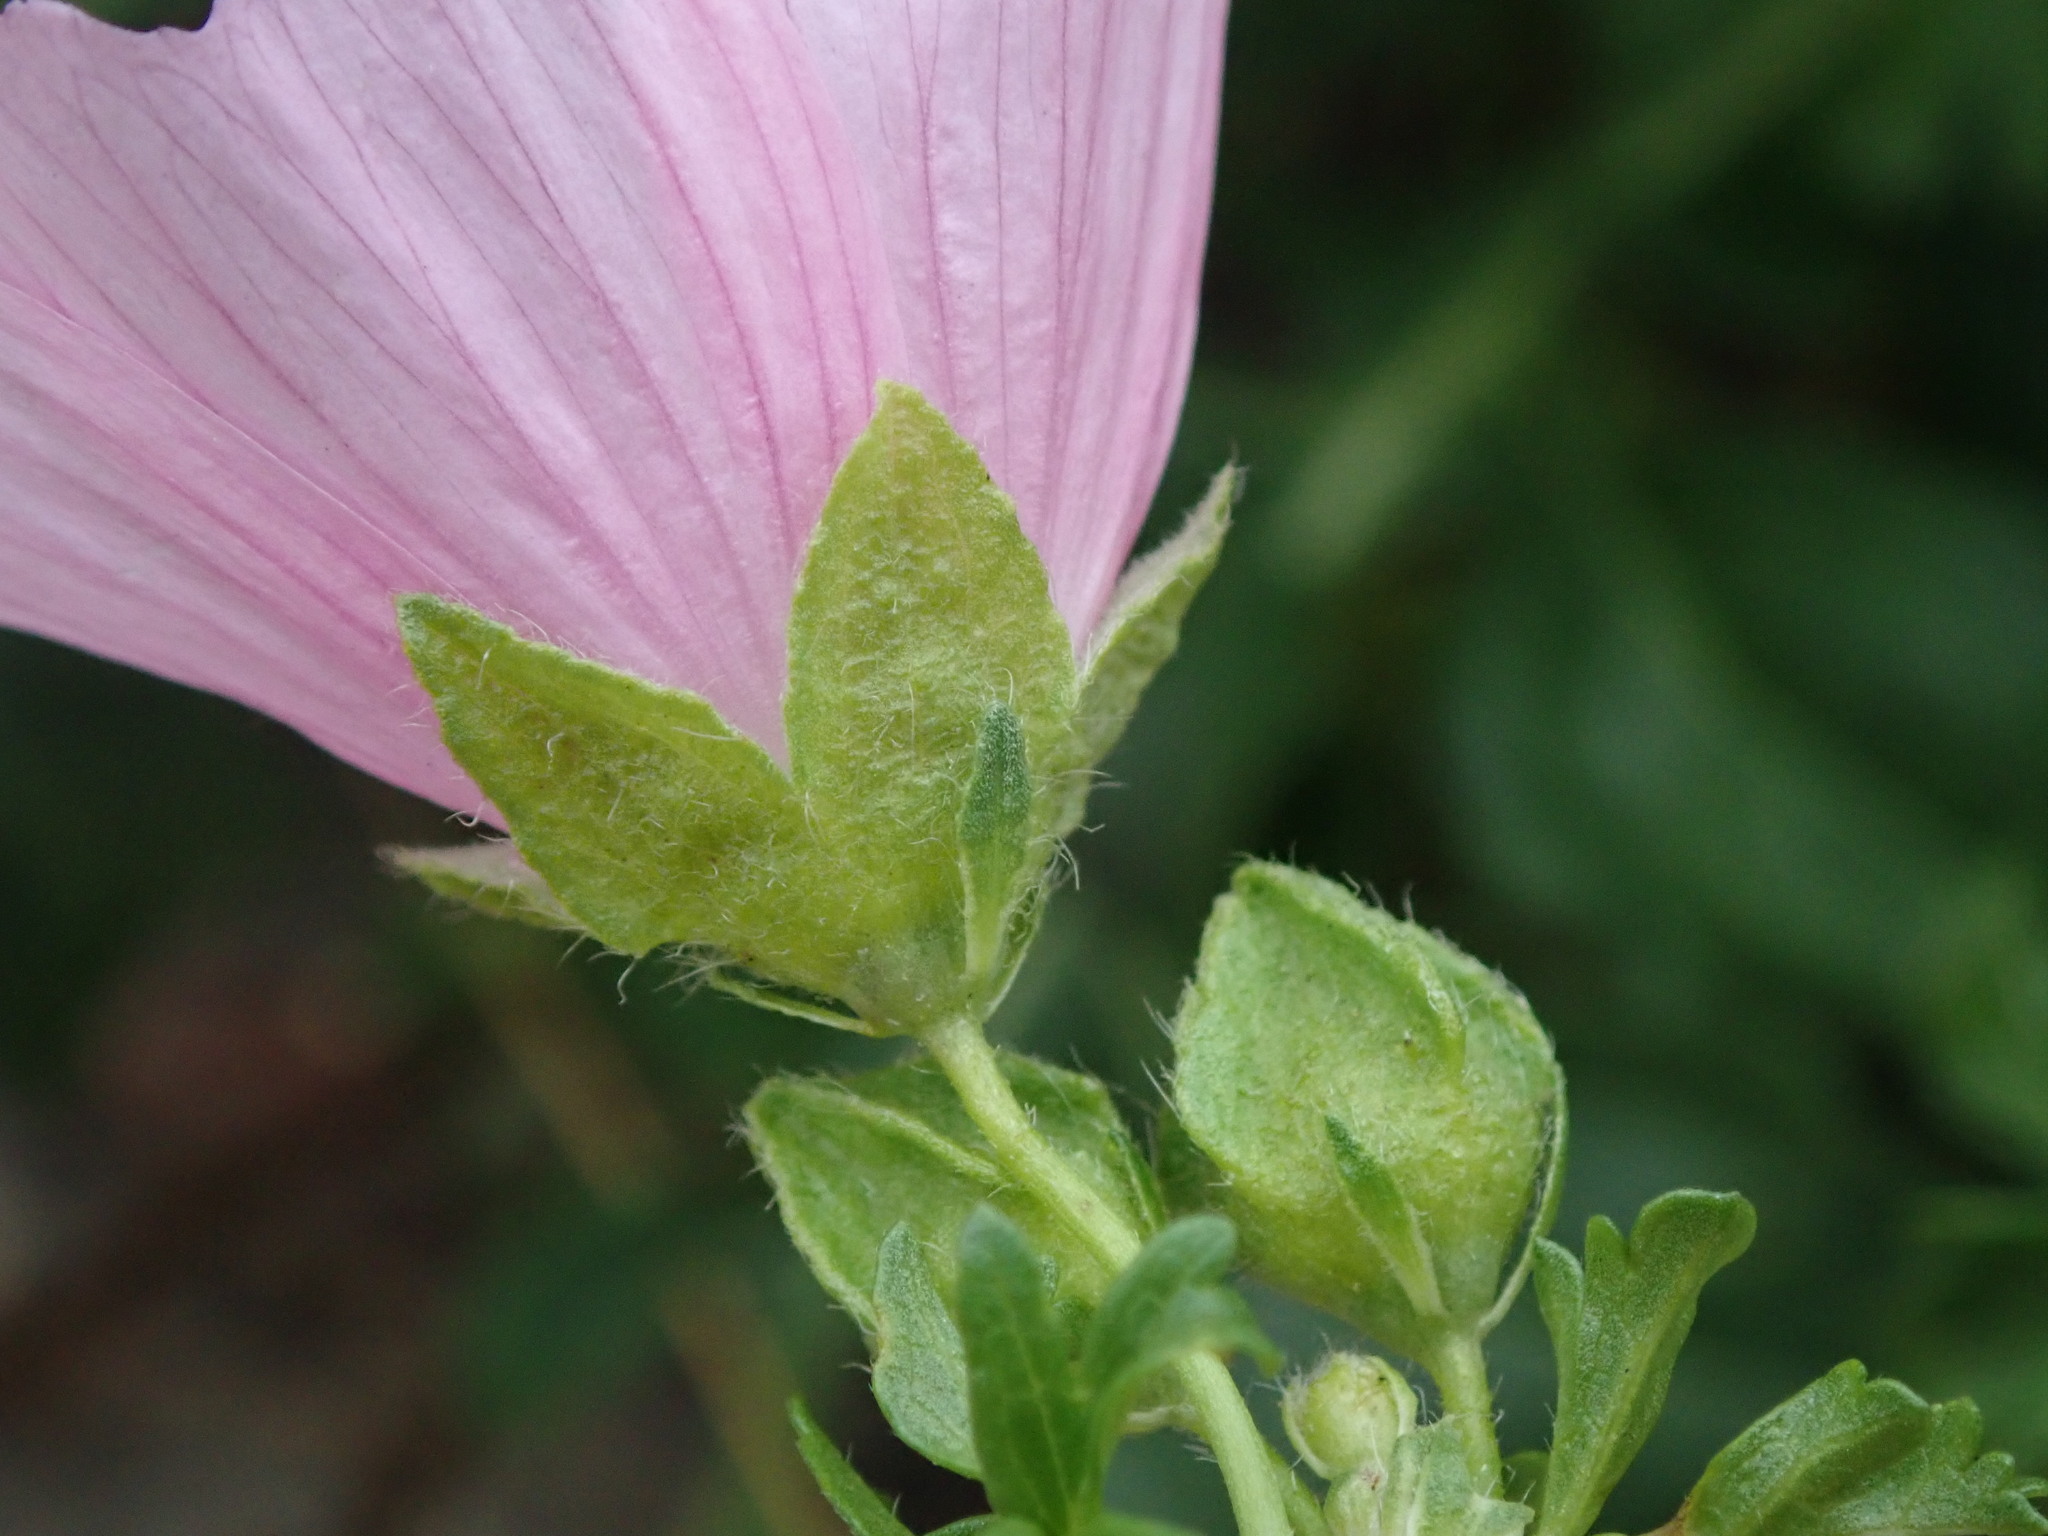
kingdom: Plantae
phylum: Tracheophyta
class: Magnoliopsida
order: Malvales
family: Malvaceae
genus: Malva
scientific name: Malva moschata
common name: Musk mallow
